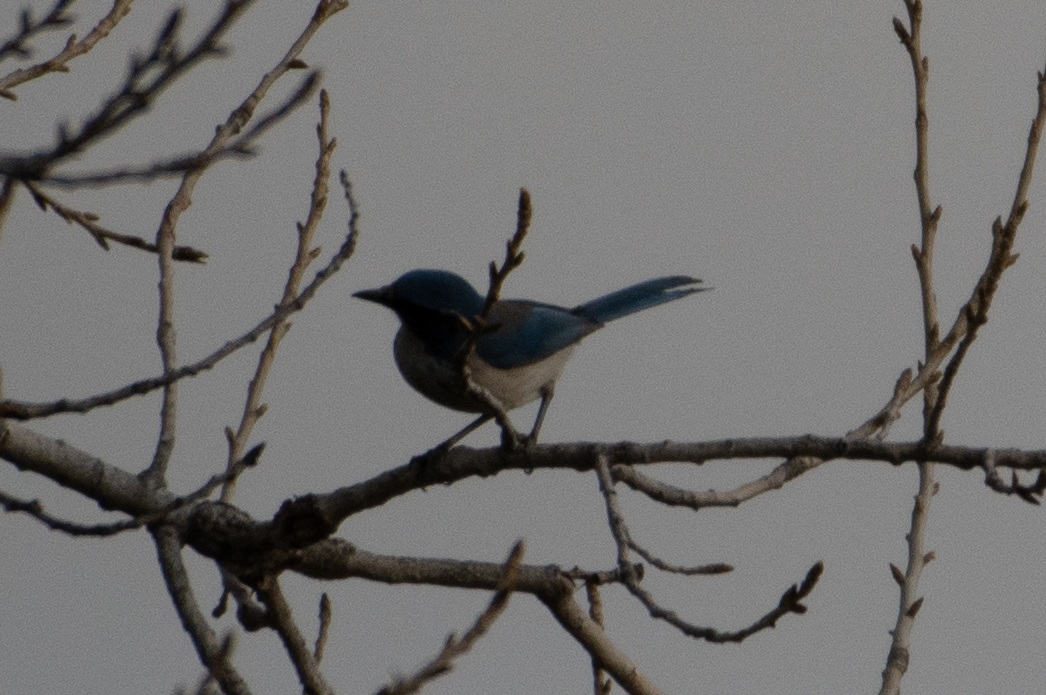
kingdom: Animalia
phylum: Chordata
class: Aves
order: Passeriformes
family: Corvidae
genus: Aphelocoma
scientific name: Aphelocoma californica
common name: California scrub-jay
